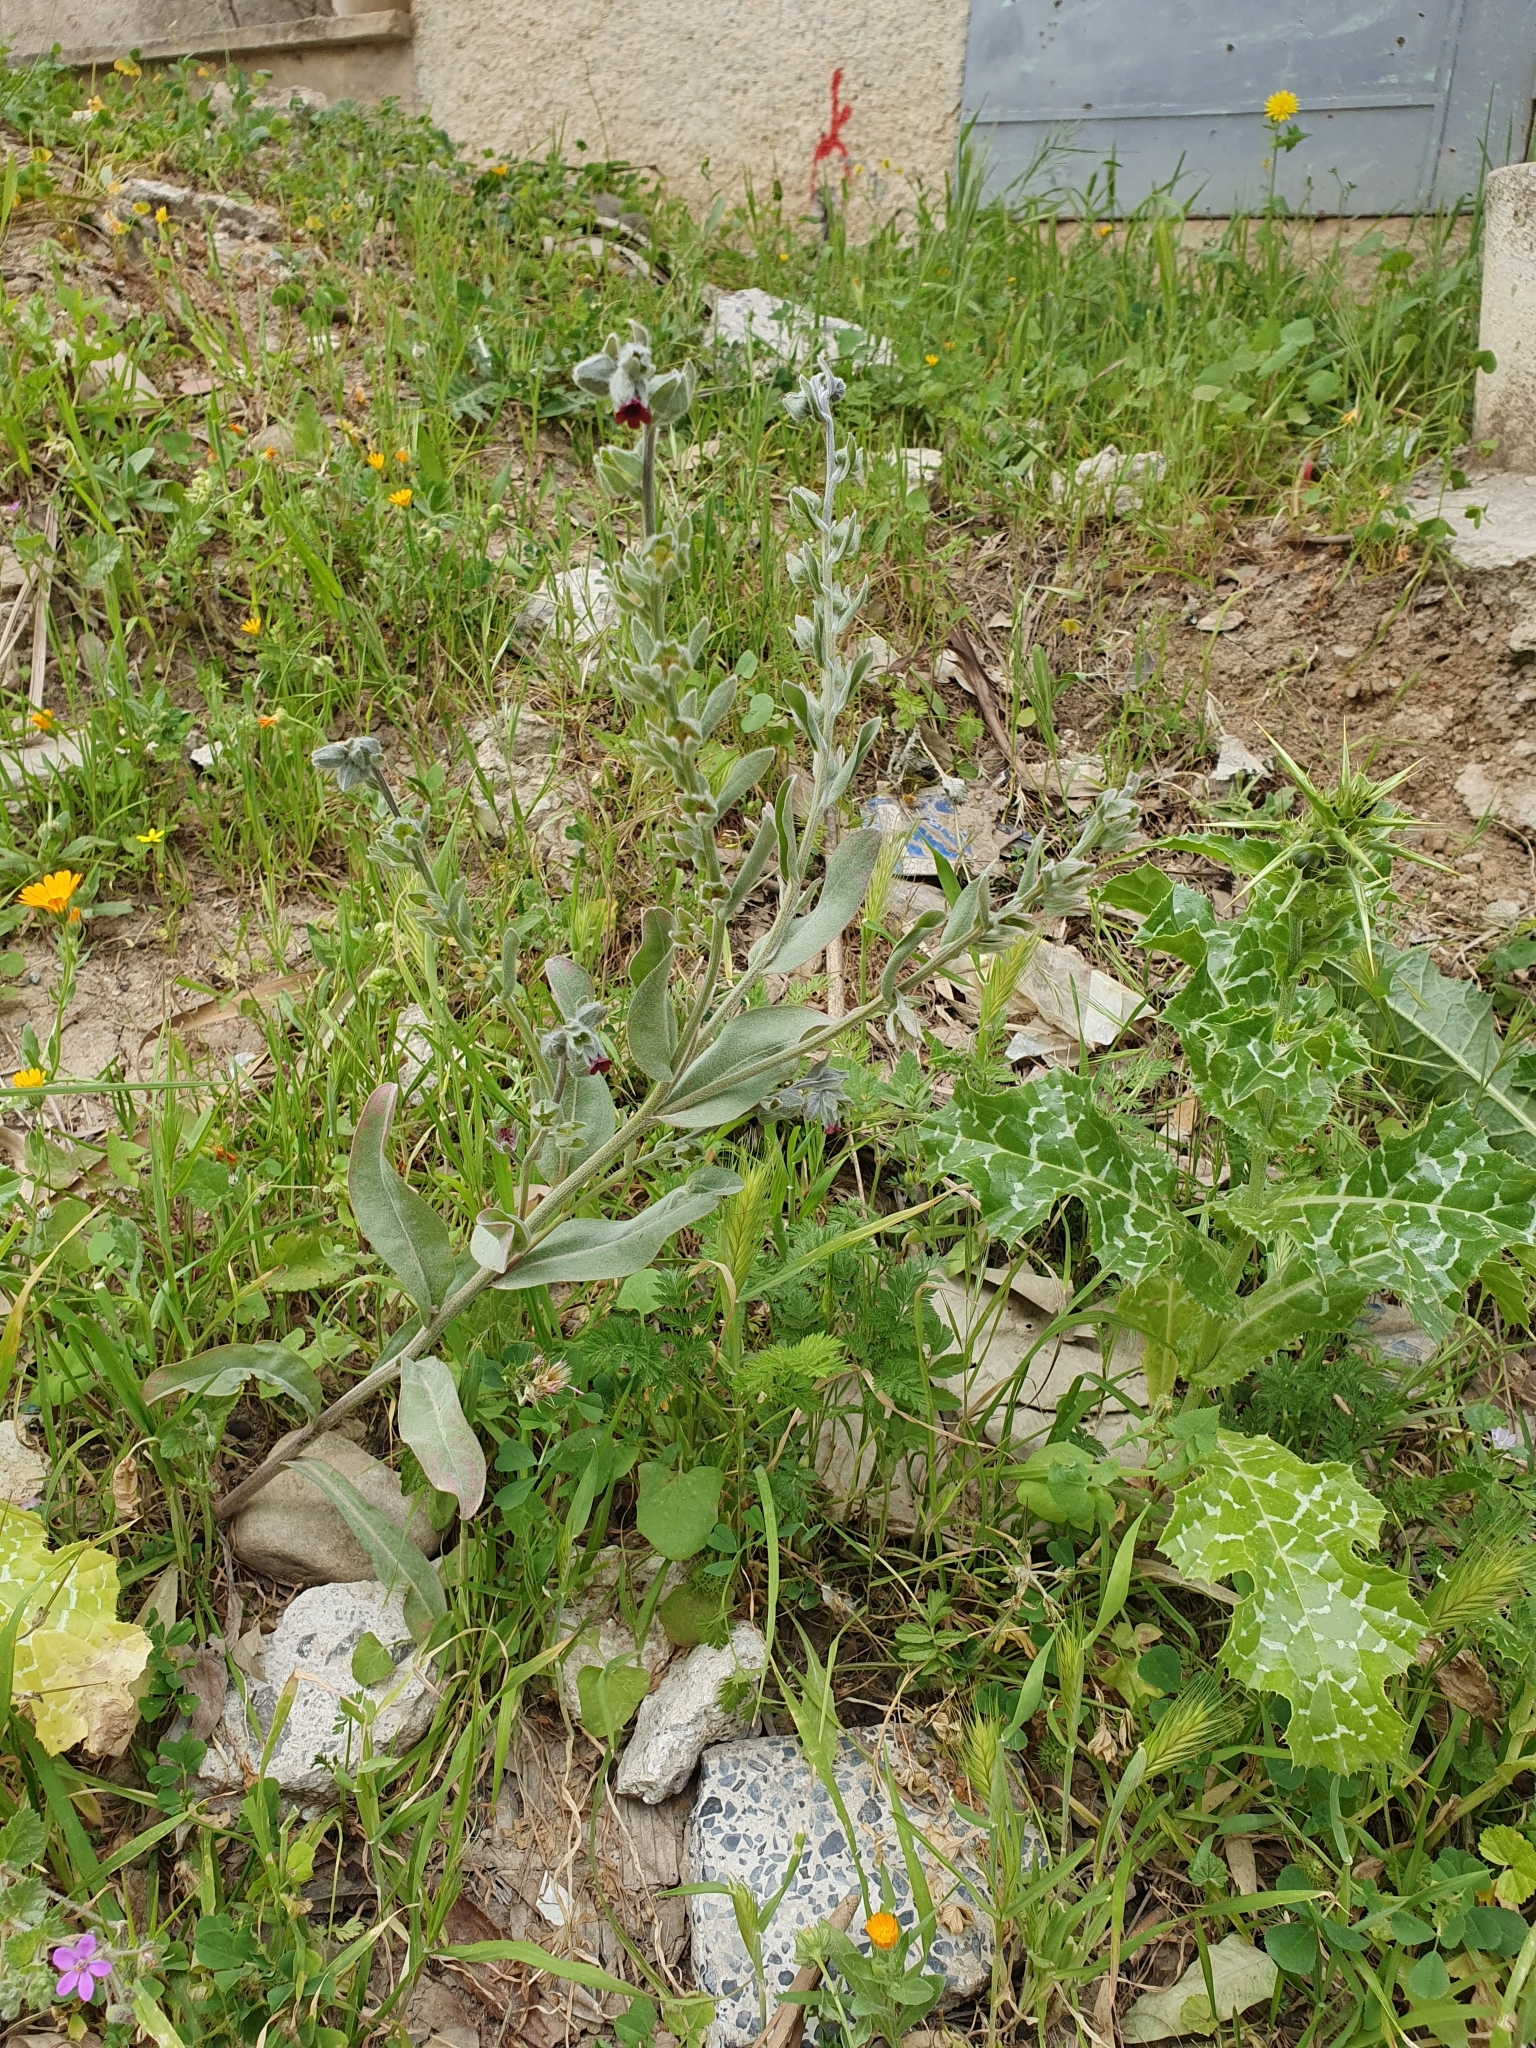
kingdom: Plantae
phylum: Tracheophyta
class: Magnoliopsida
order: Boraginales
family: Boraginaceae
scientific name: Boraginaceae
